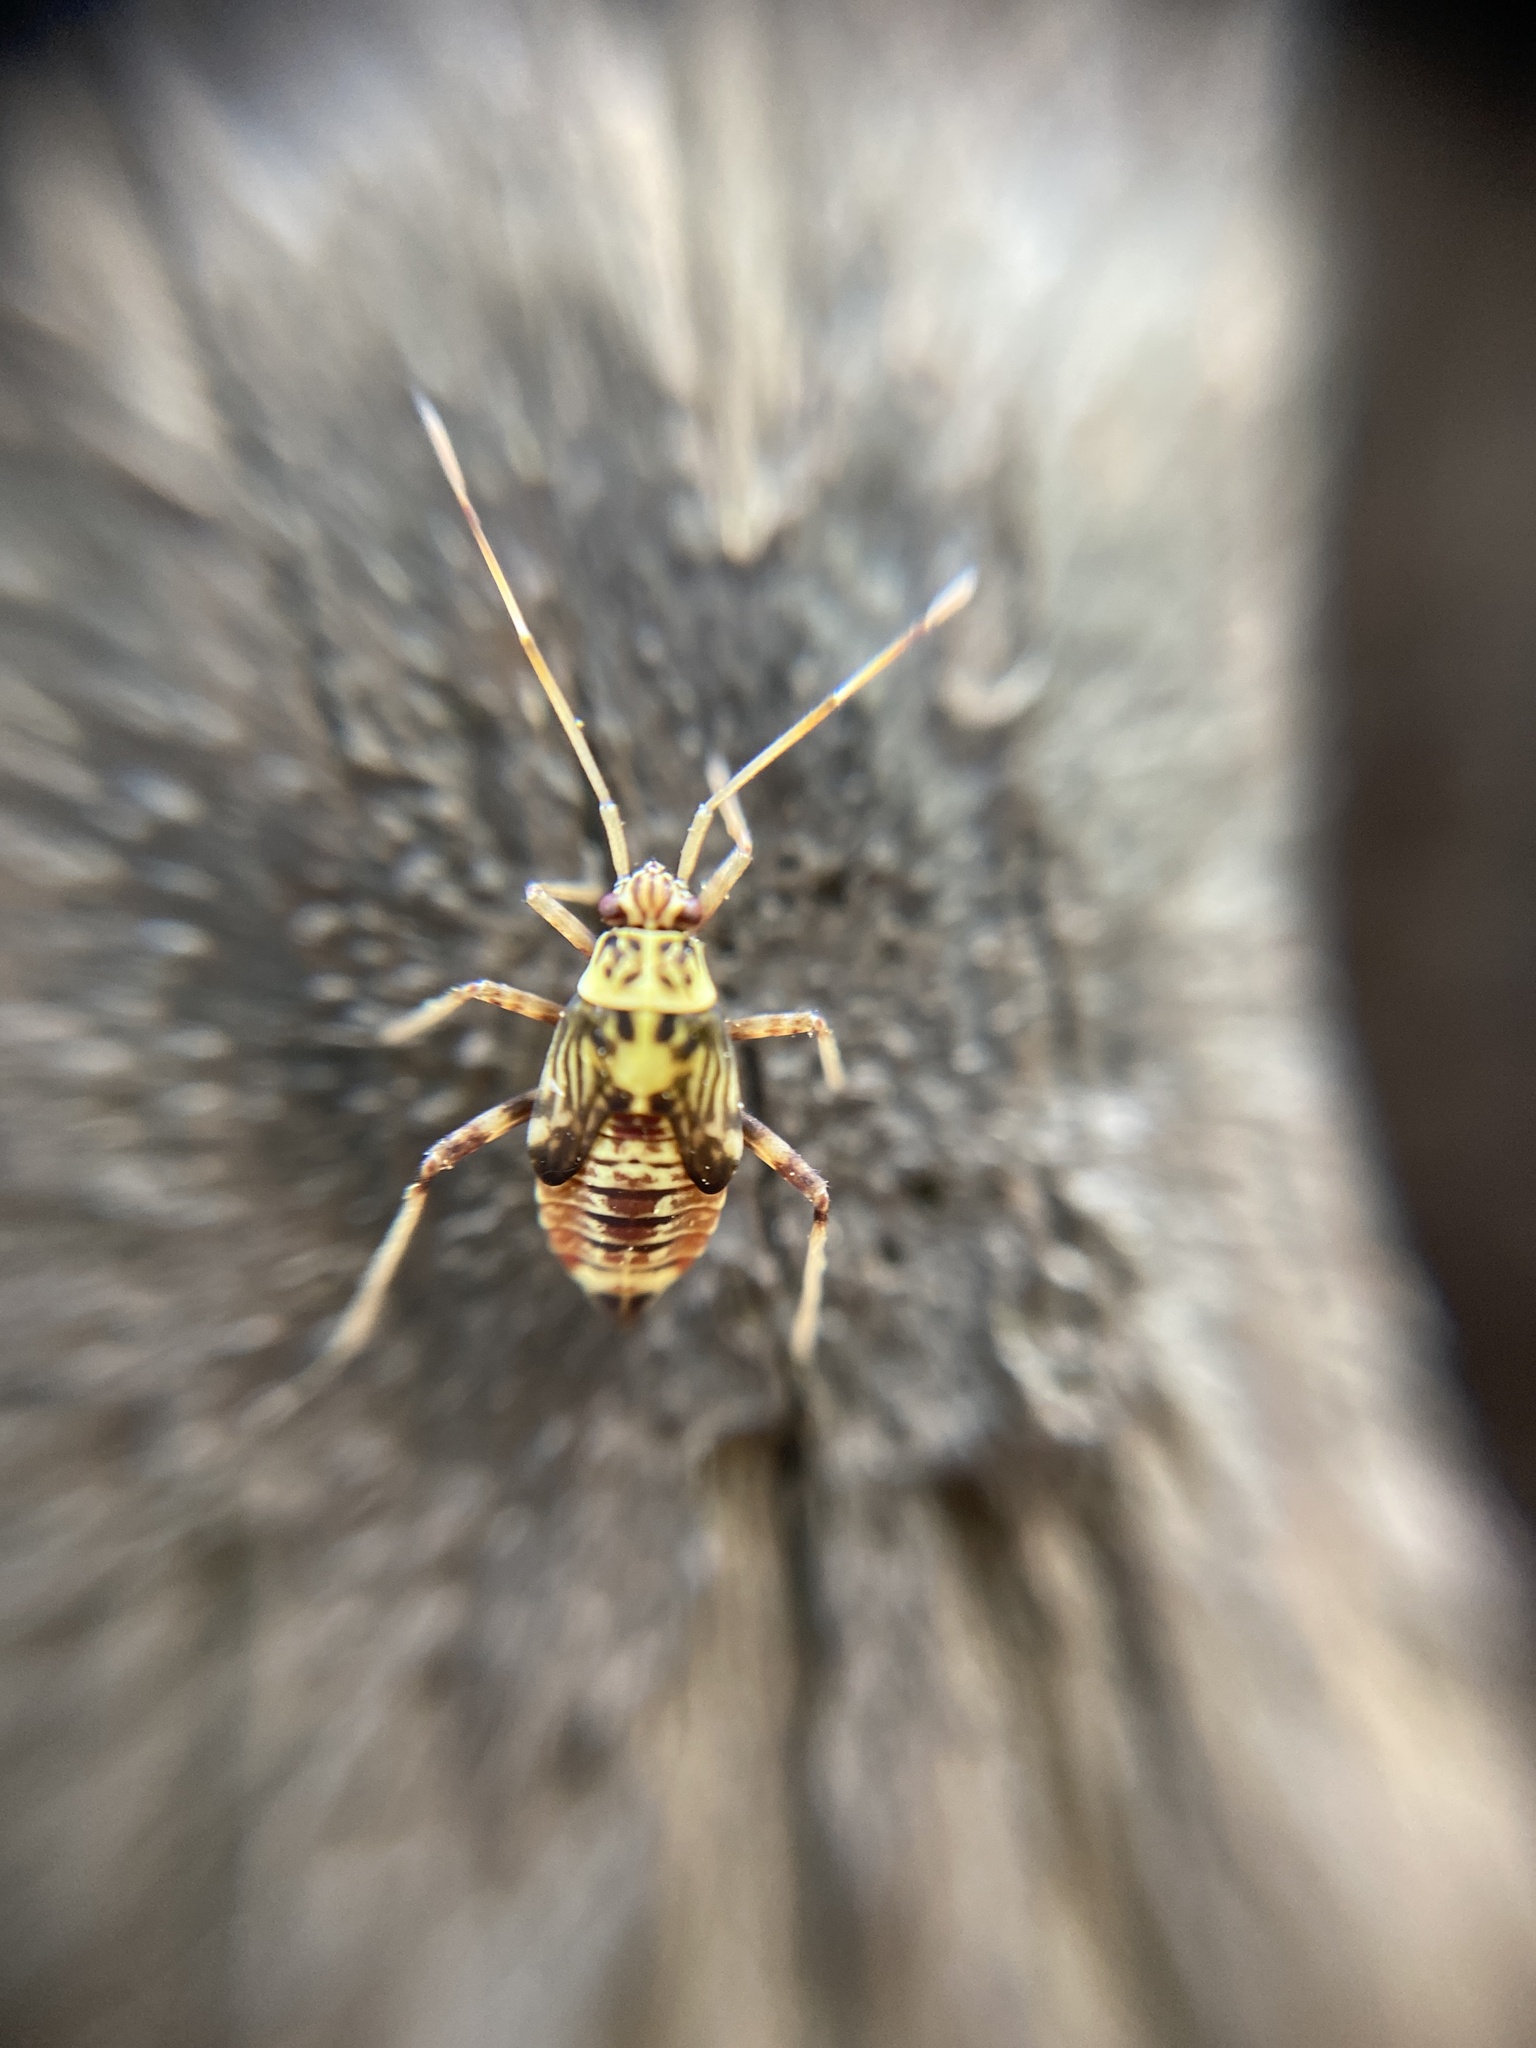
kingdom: Animalia
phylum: Arthropoda
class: Insecta
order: Hemiptera
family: Miridae
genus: Rhabdomiris
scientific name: Rhabdomiris striatellus
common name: Plant bug
